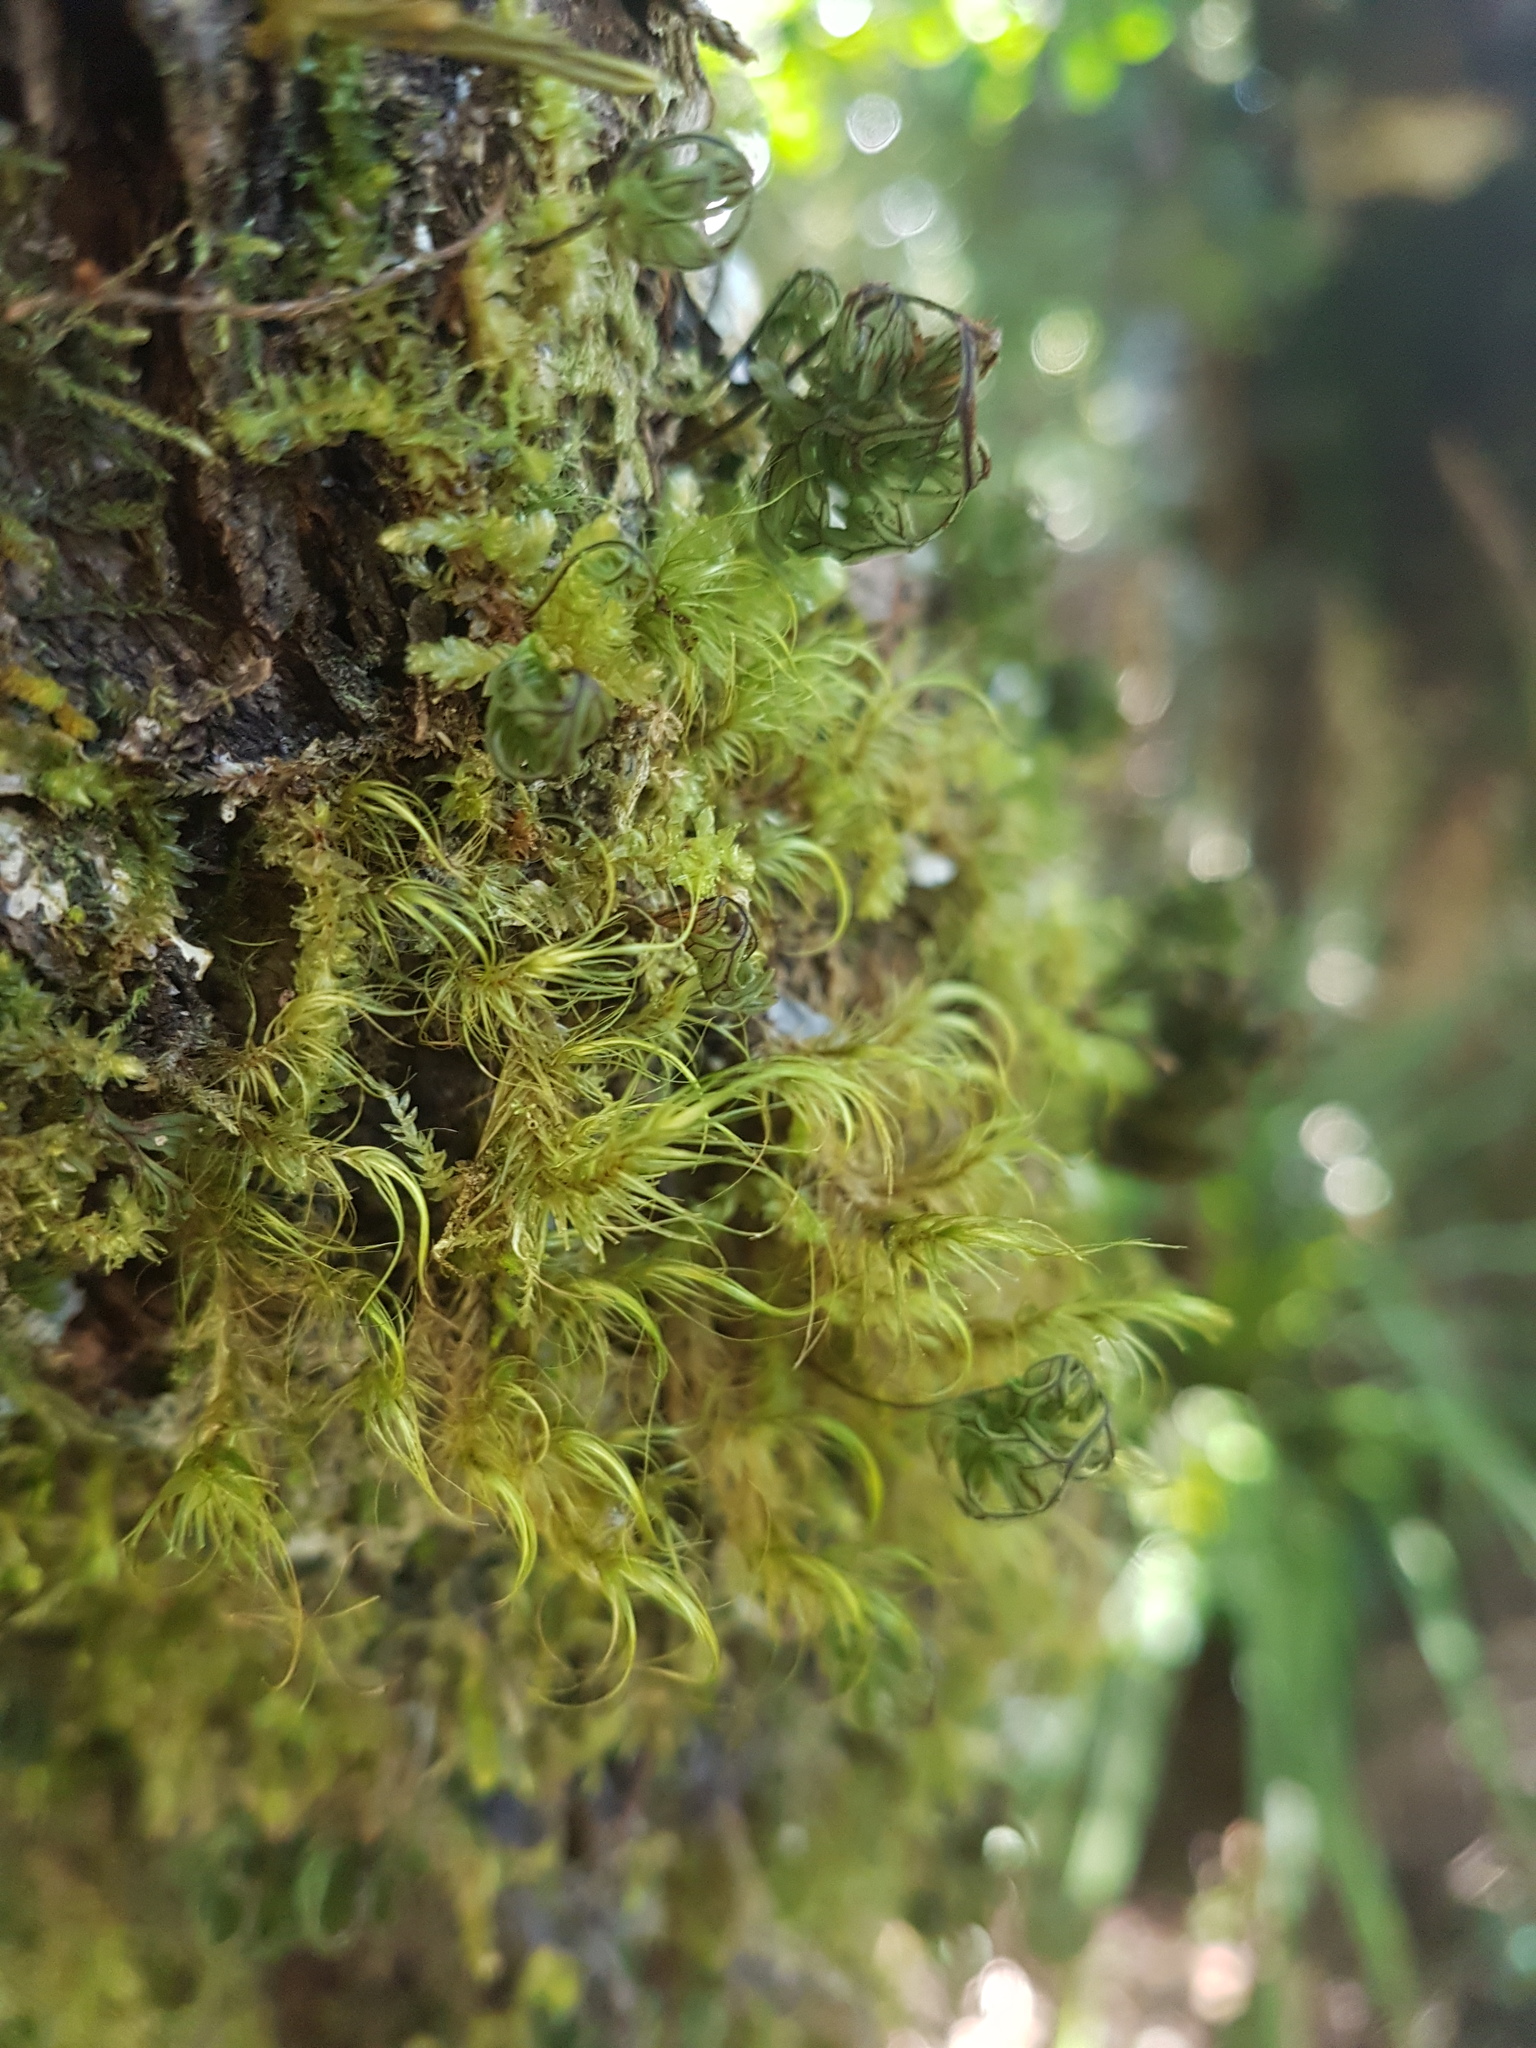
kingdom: Plantae
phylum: Bryophyta
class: Bryopsida
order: Dicranales
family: Dicranaceae
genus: Dicranoloma
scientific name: Dicranoloma menziesii
